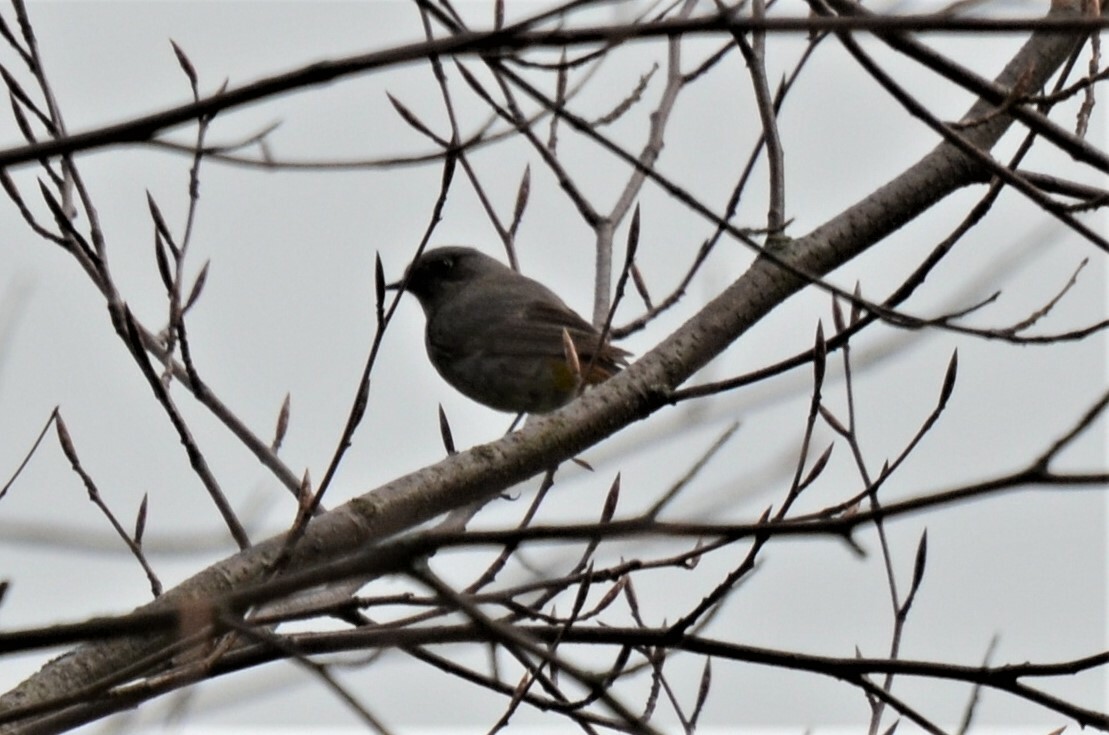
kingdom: Animalia
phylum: Chordata
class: Aves
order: Passeriformes
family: Muscicapidae
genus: Phoenicurus
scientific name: Phoenicurus ochruros
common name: Black redstart
